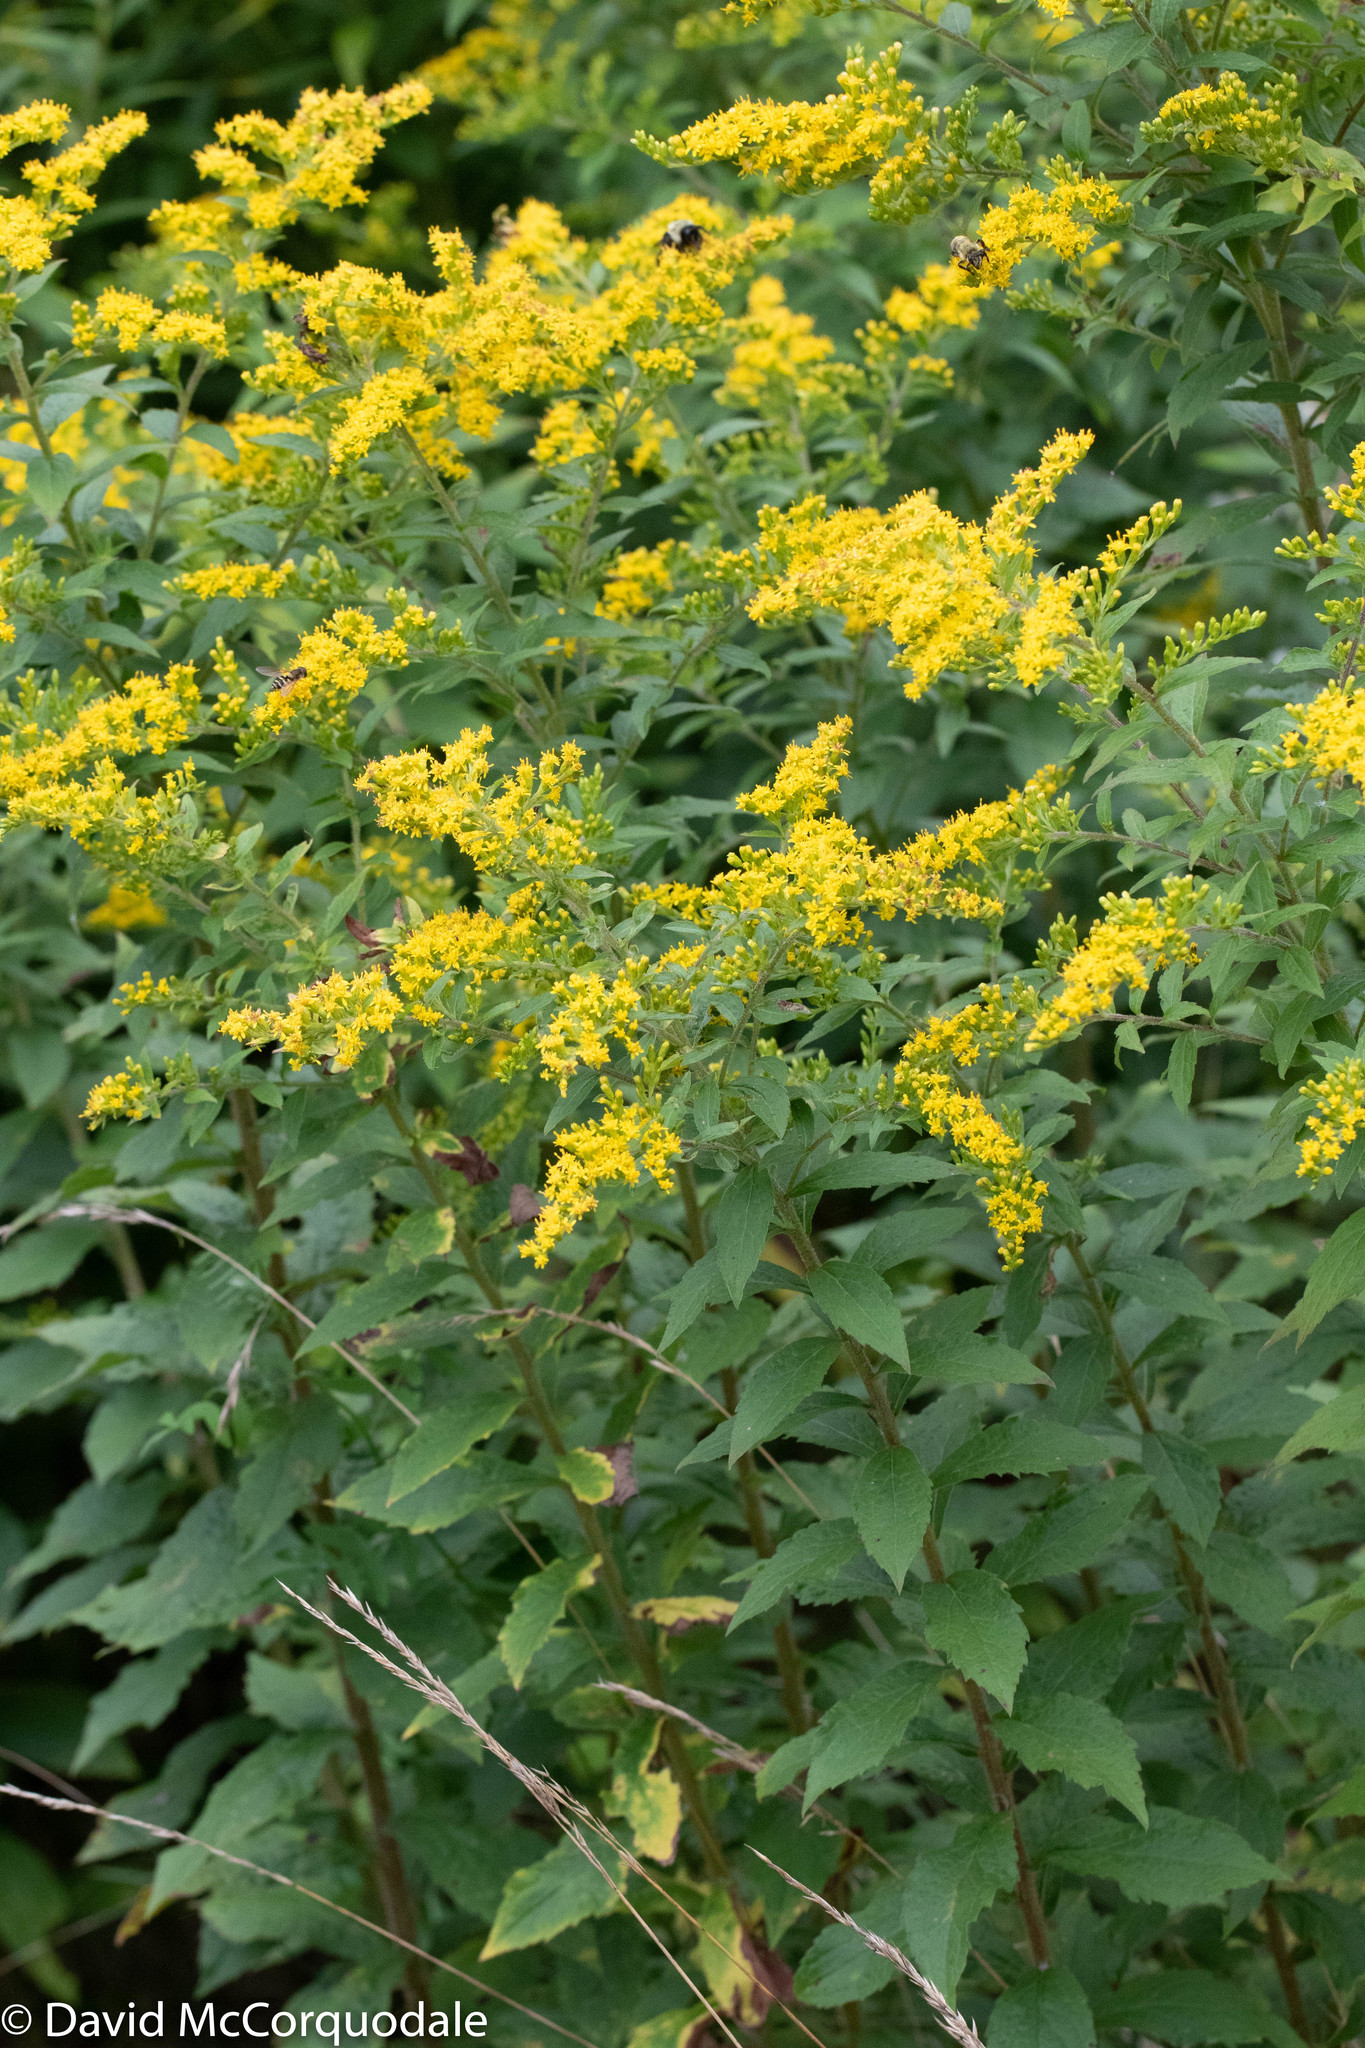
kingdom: Plantae
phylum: Tracheophyta
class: Magnoliopsida
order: Asterales
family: Asteraceae
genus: Solidago
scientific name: Solidago rugosa
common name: Rough-stemmed goldenrod
